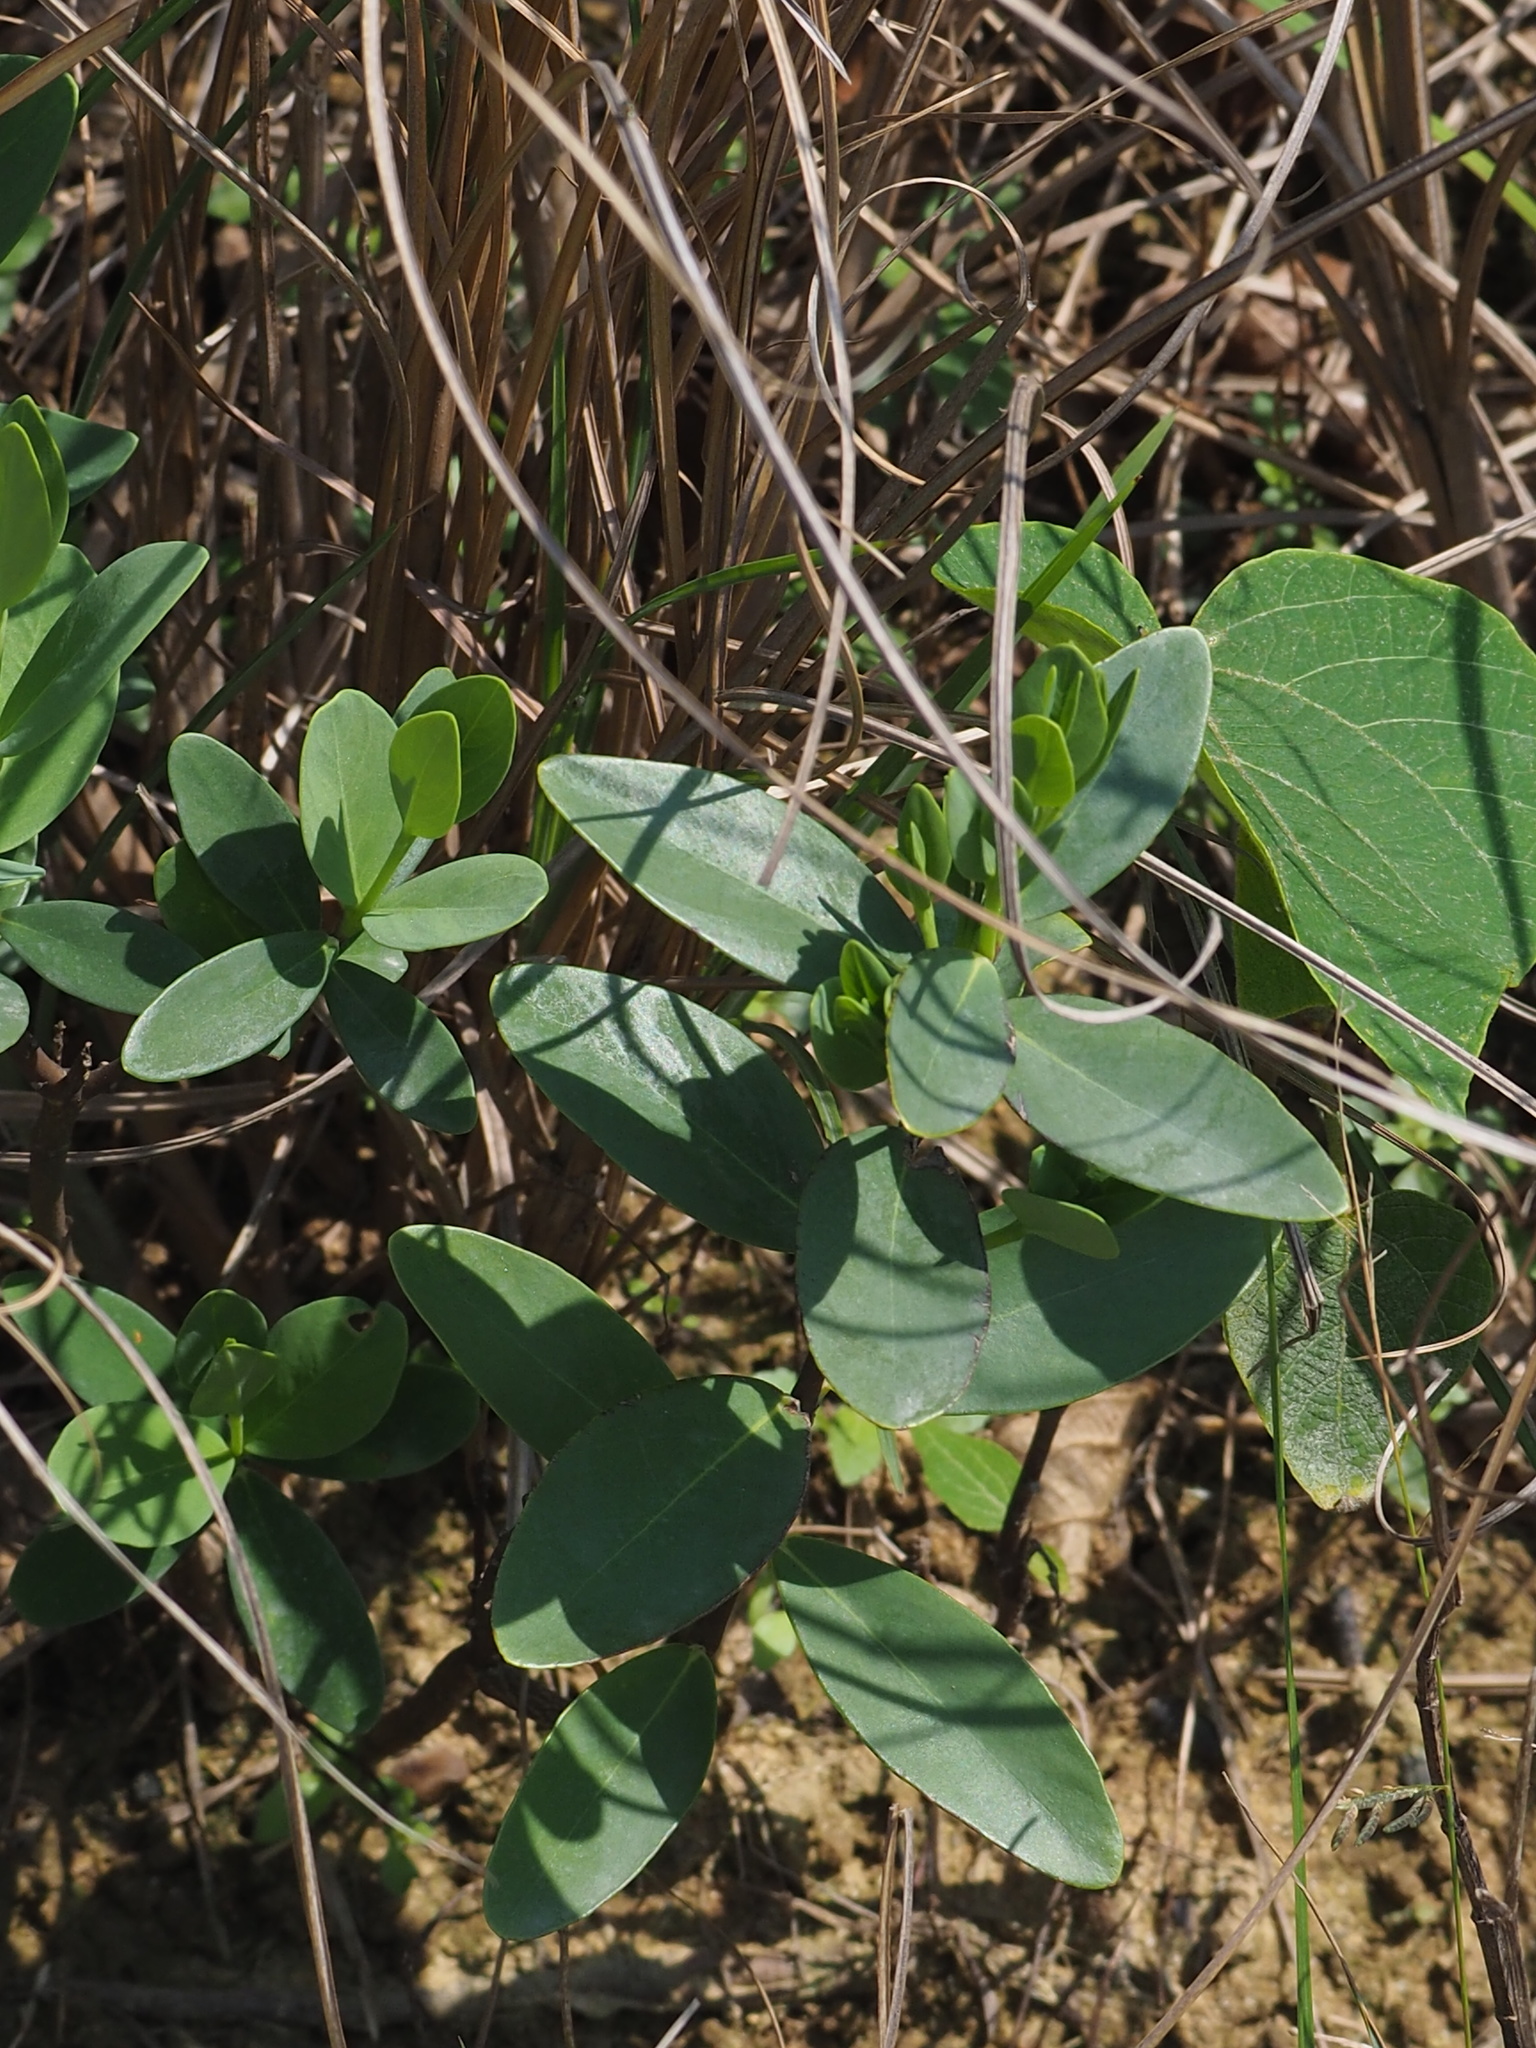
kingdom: Plantae
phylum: Tracheophyta
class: Magnoliopsida
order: Malvales
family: Thymelaeaceae
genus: Wikstroemia
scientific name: Wikstroemia indica
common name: Tiebush
